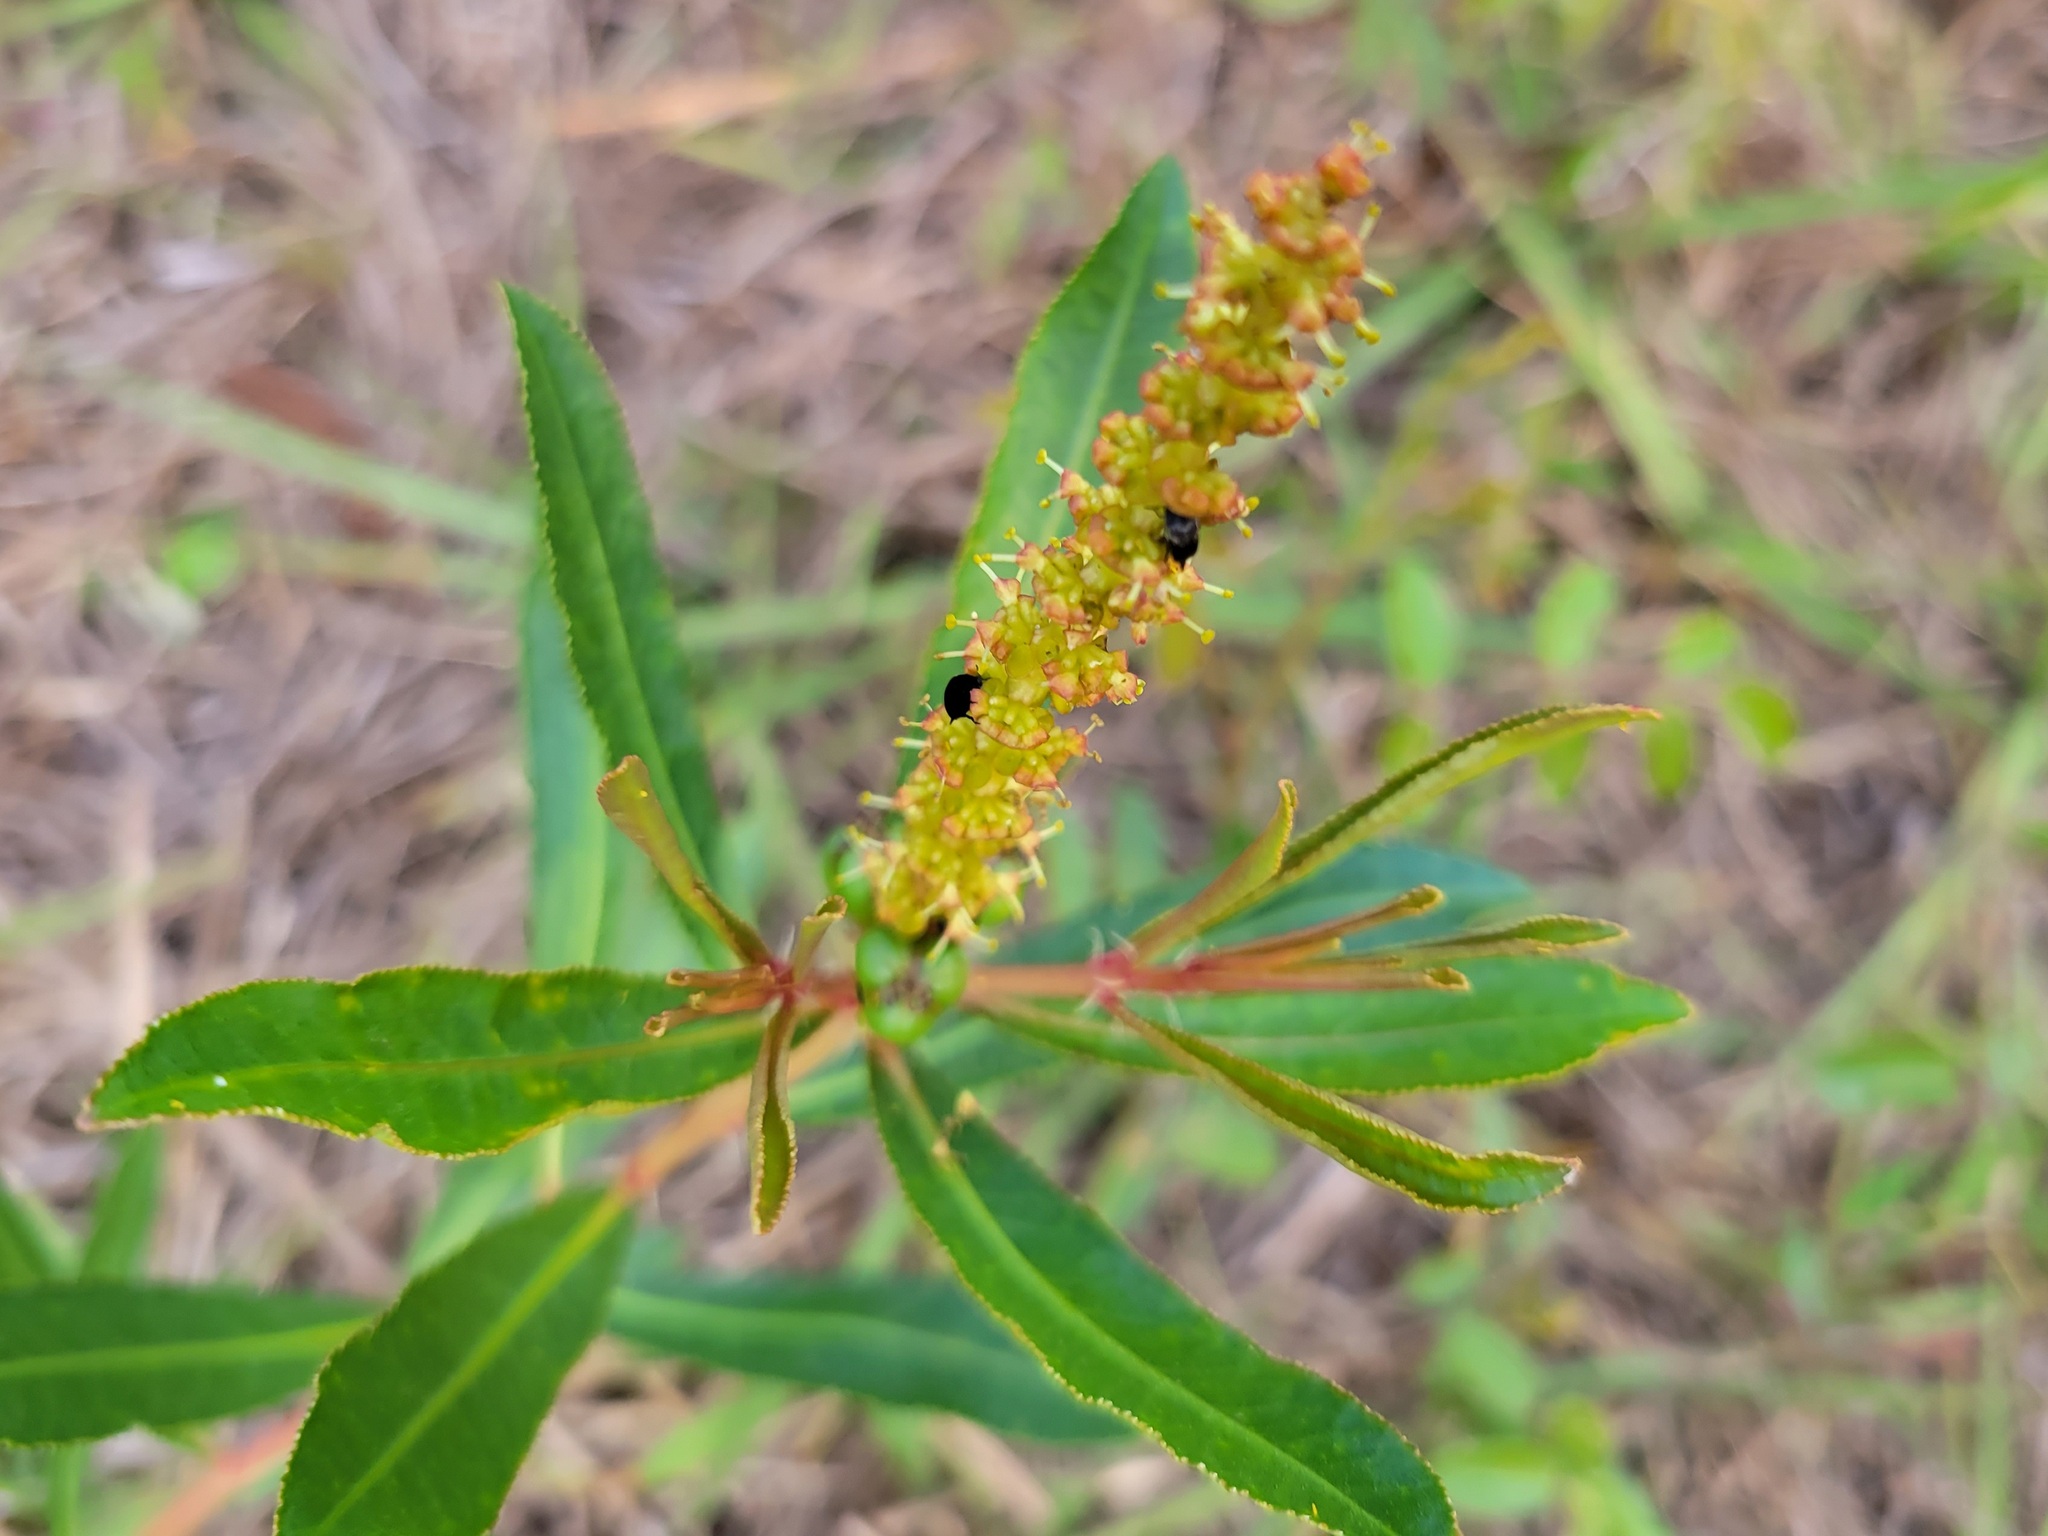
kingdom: Plantae
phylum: Tracheophyta
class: Magnoliopsida
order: Malpighiales
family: Euphorbiaceae
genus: Stillingia
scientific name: Stillingia sylvatica
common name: Queen's-delight
